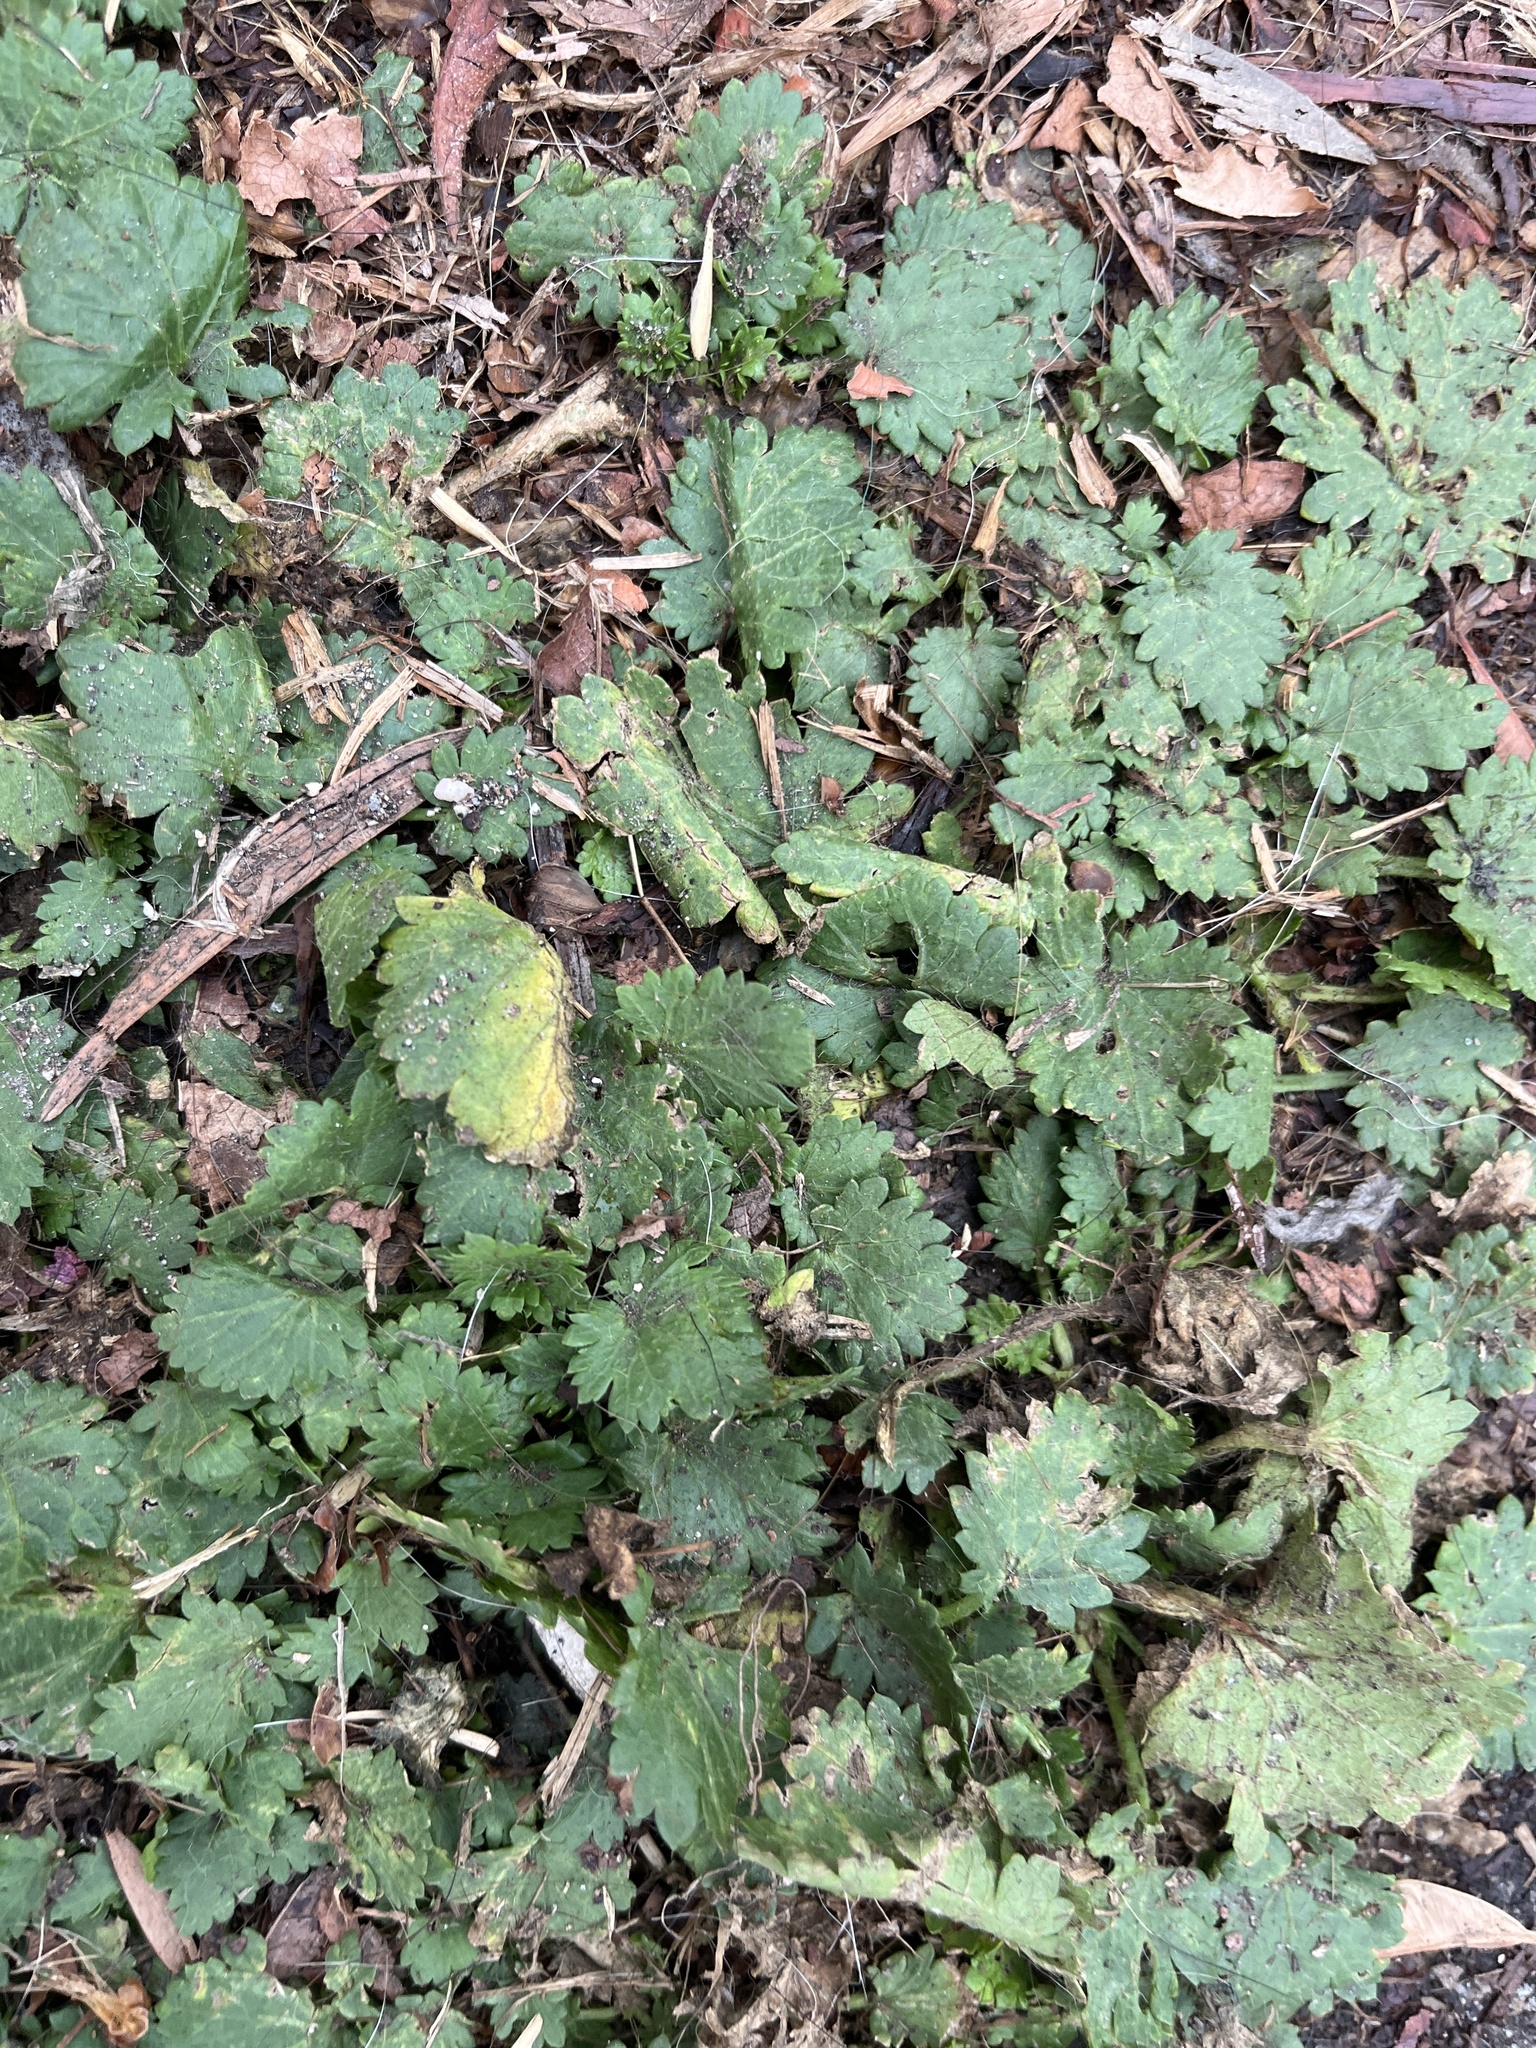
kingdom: Plantae
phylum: Tracheophyta
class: Magnoliopsida
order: Malvales
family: Malvaceae
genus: Modiola
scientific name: Modiola caroliniana
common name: Carolina bristlemallow
